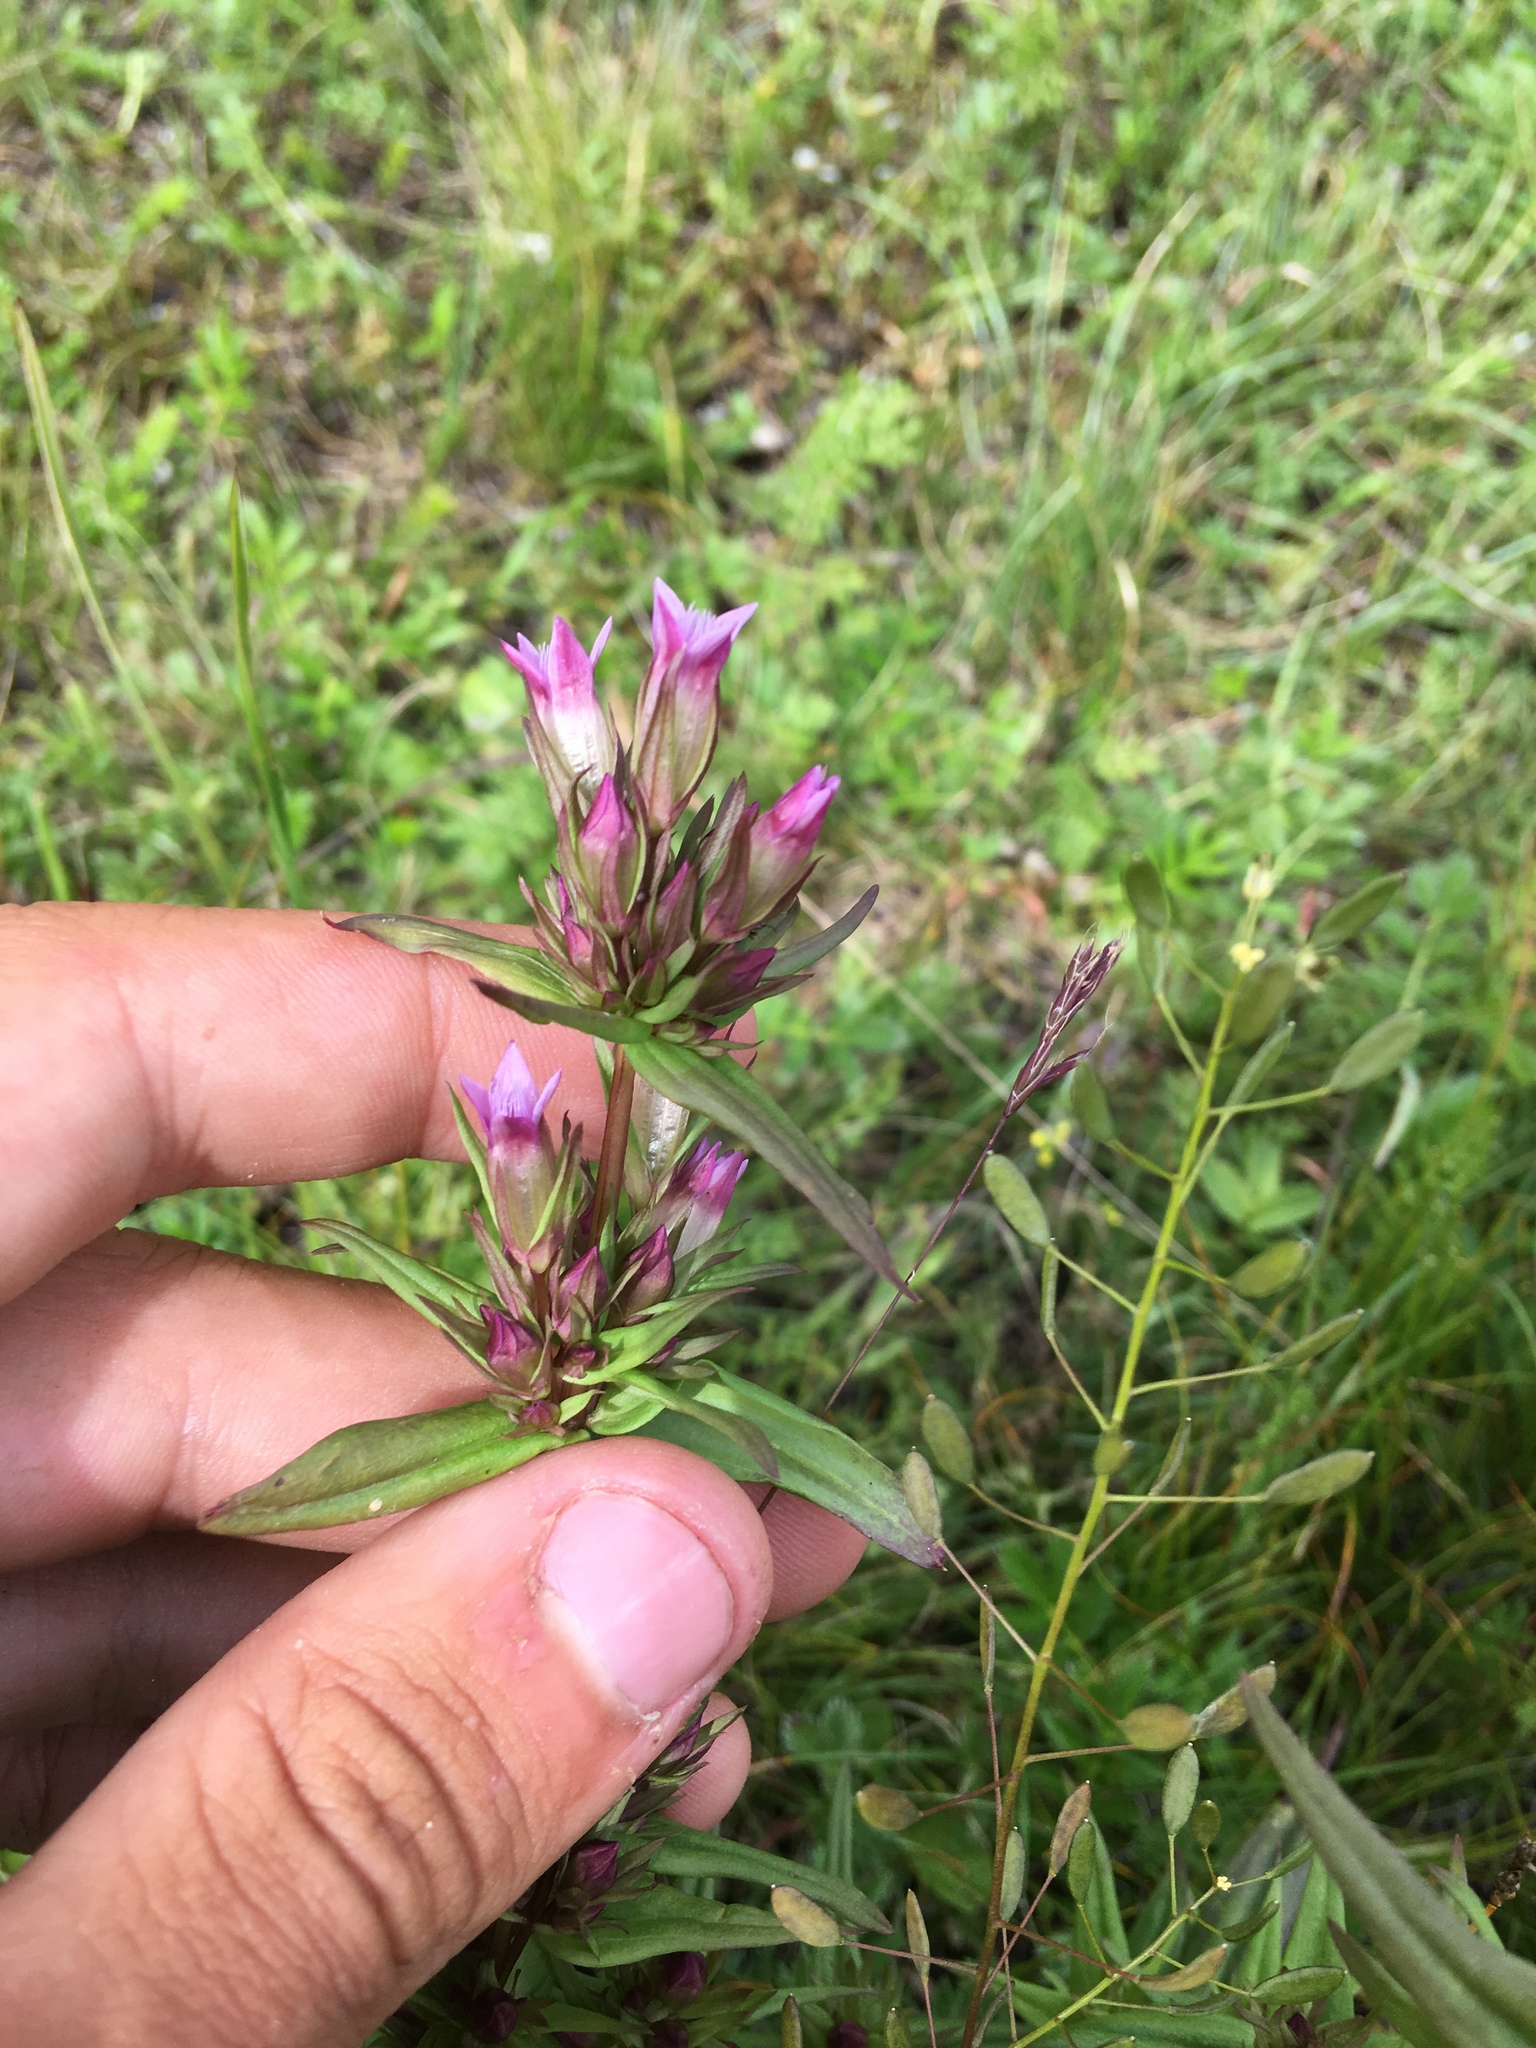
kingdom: Plantae
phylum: Tracheophyta
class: Magnoliopsida
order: Gentianales
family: Gentianaceae
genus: Gentianella
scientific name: Gentianella amarella
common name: Autumn gentian
